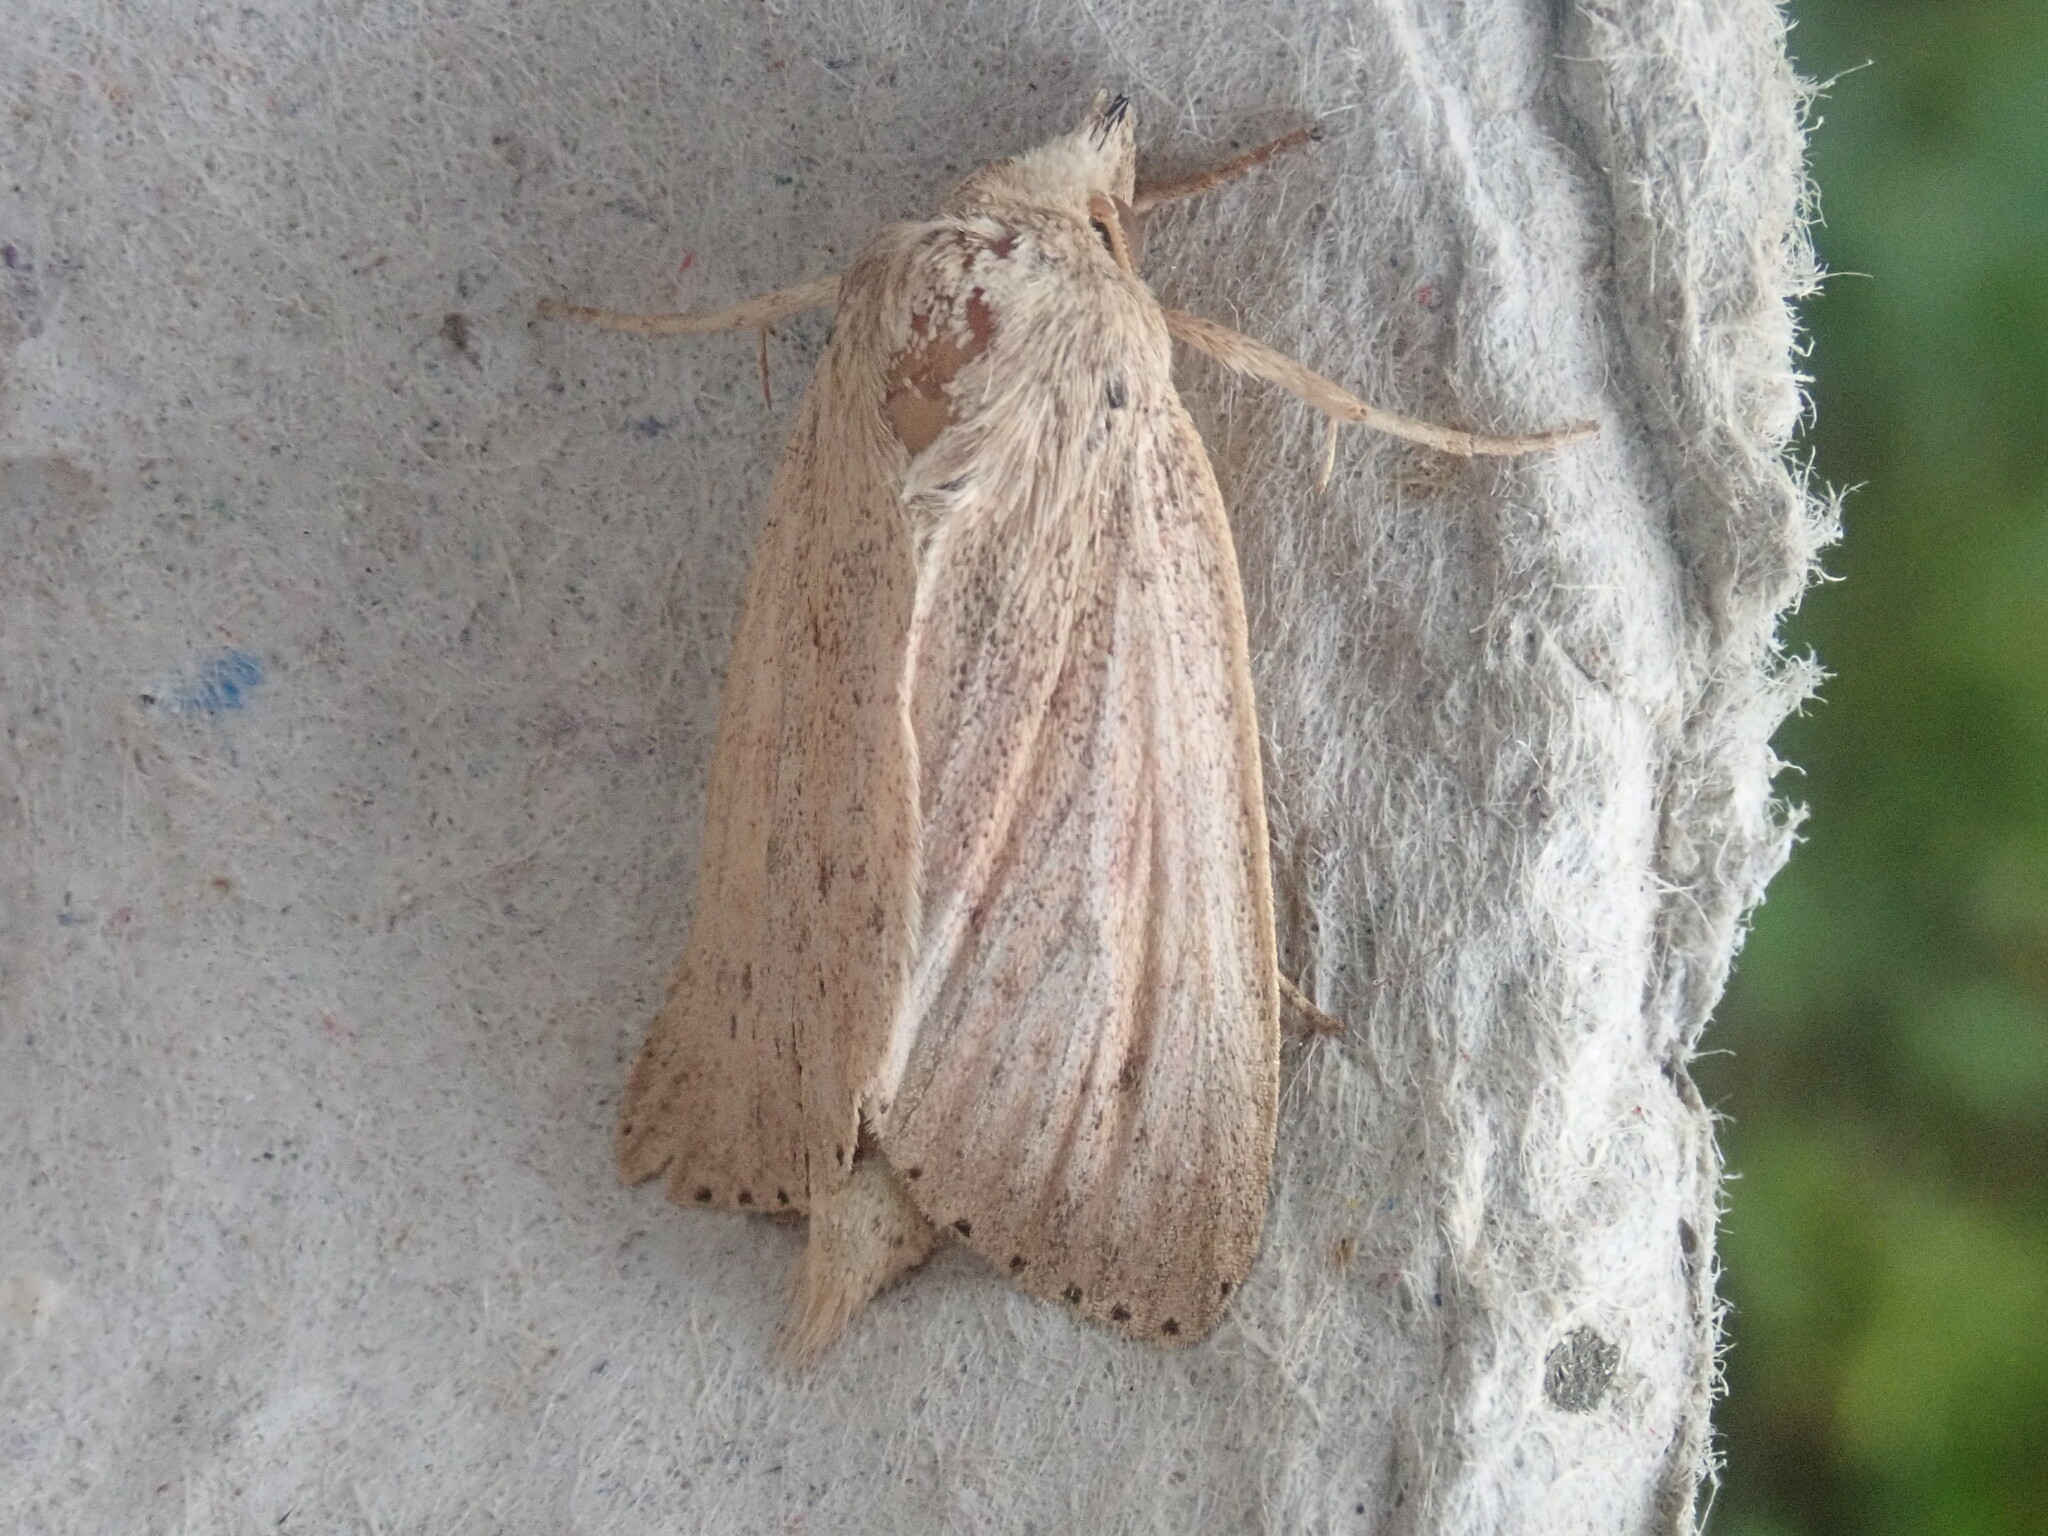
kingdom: Animalia
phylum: Arthropoda
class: Insecta
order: Lepidoptera
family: Noctuidae
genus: Globia
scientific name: Globia oblonga
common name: Oblong sedge borer moth
